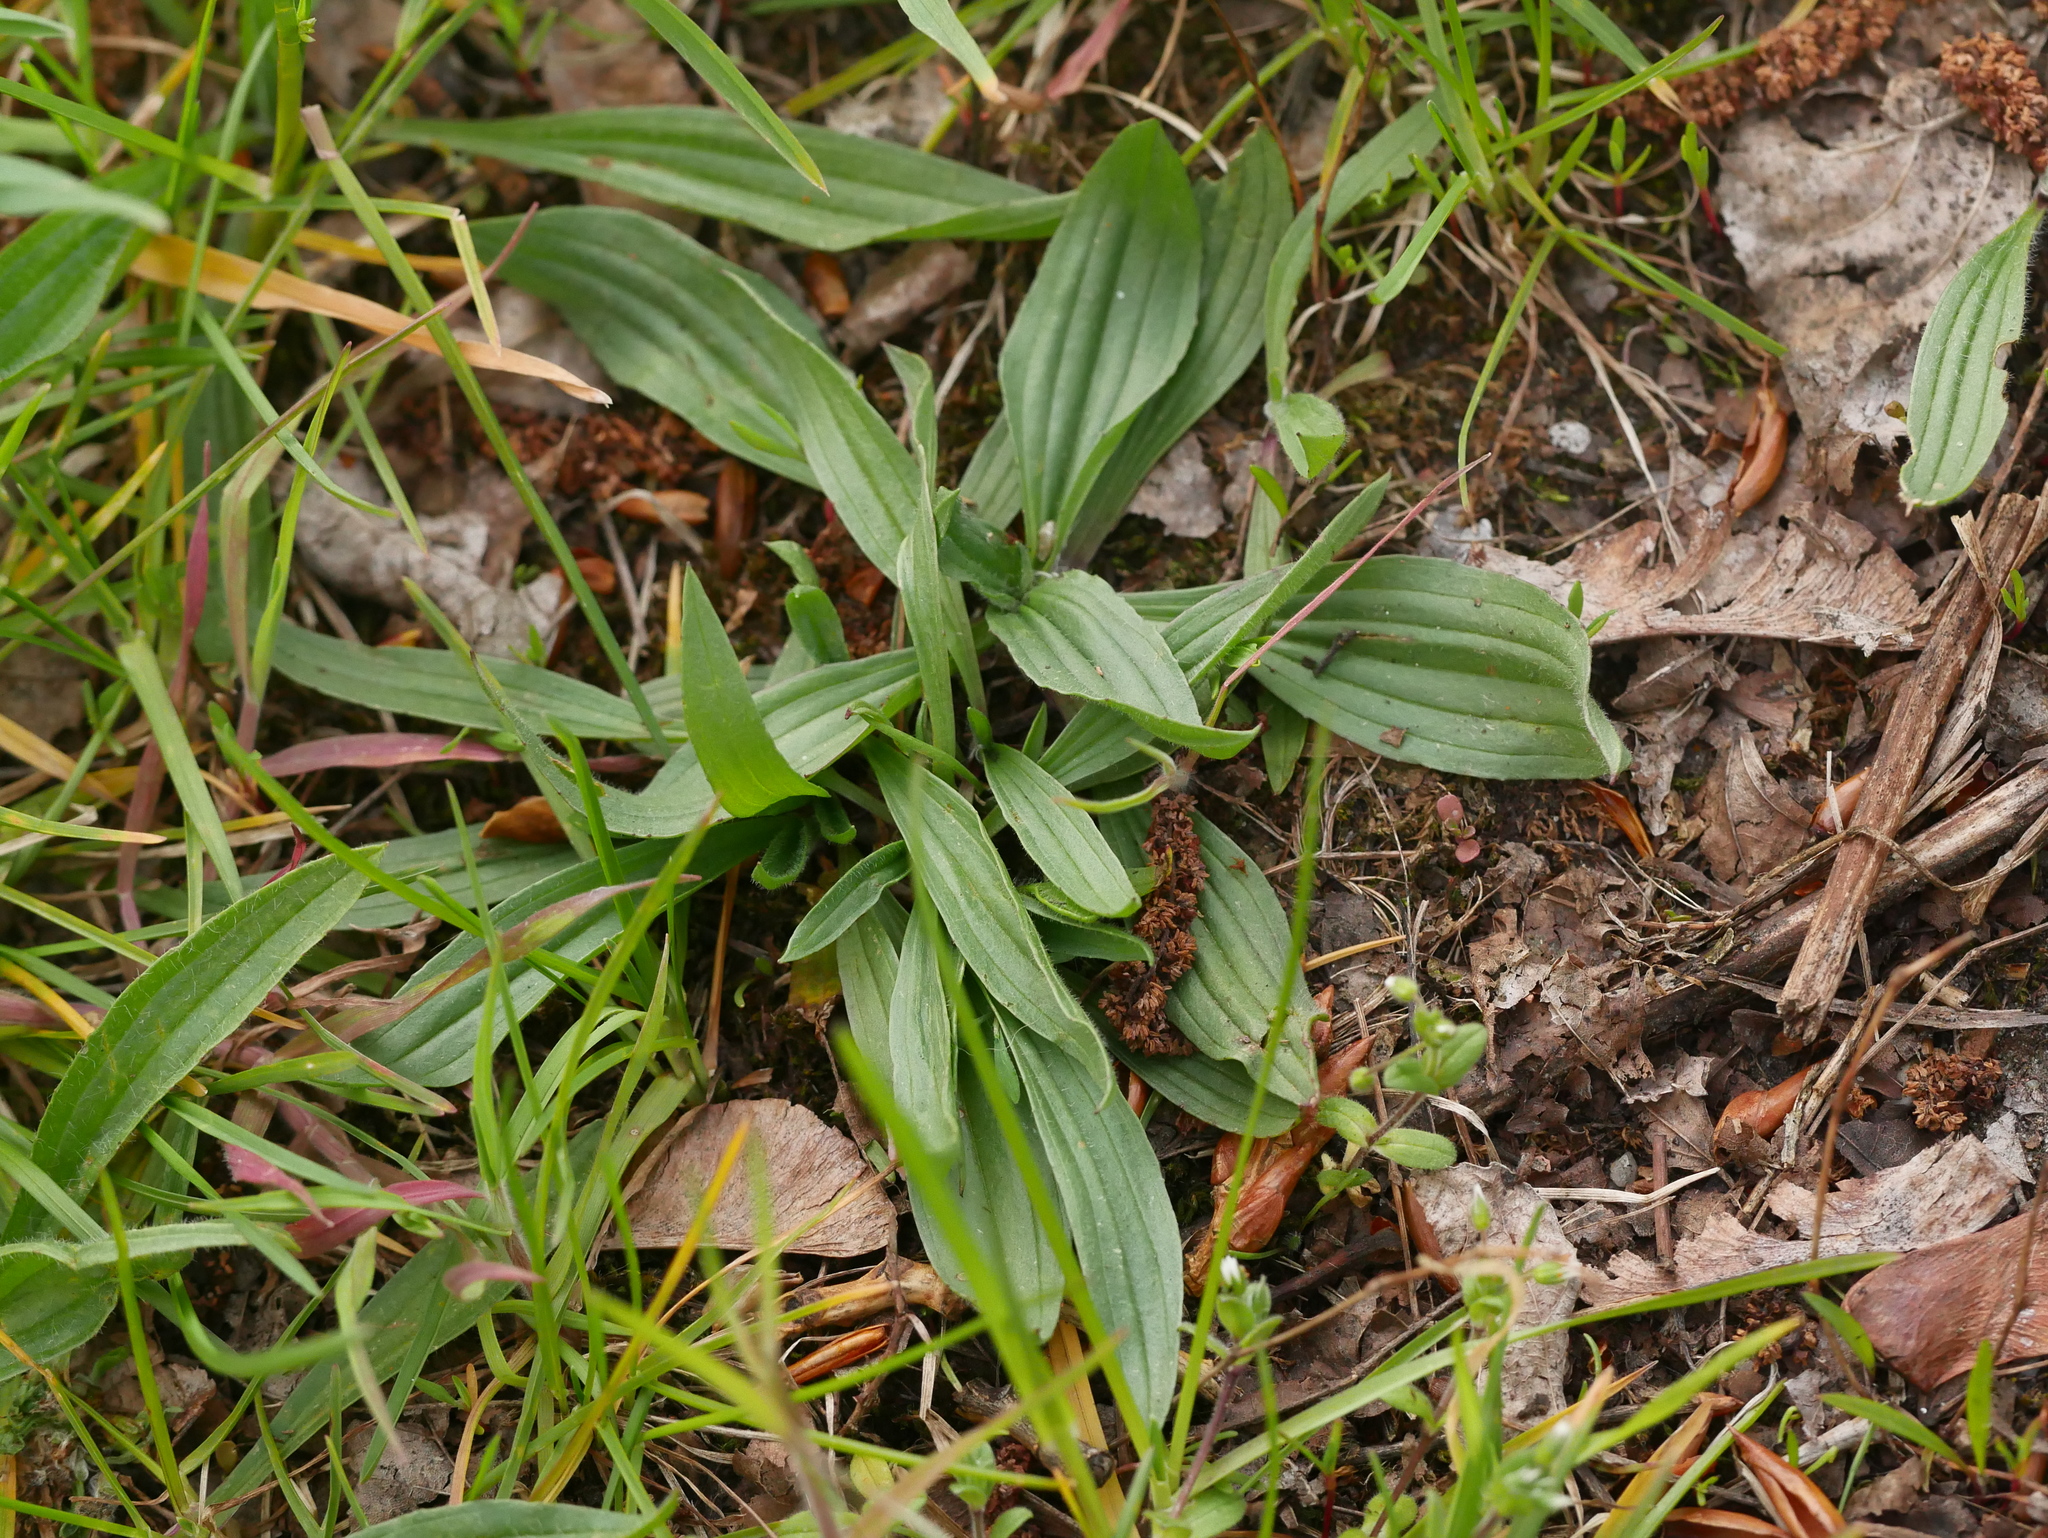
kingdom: Plantae
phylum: Tracheophyta
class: Magnoliopsida
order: Lamiales
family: Plantaginaceae
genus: Plantago
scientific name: Plantago lanceolata
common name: Ribwort plantain
